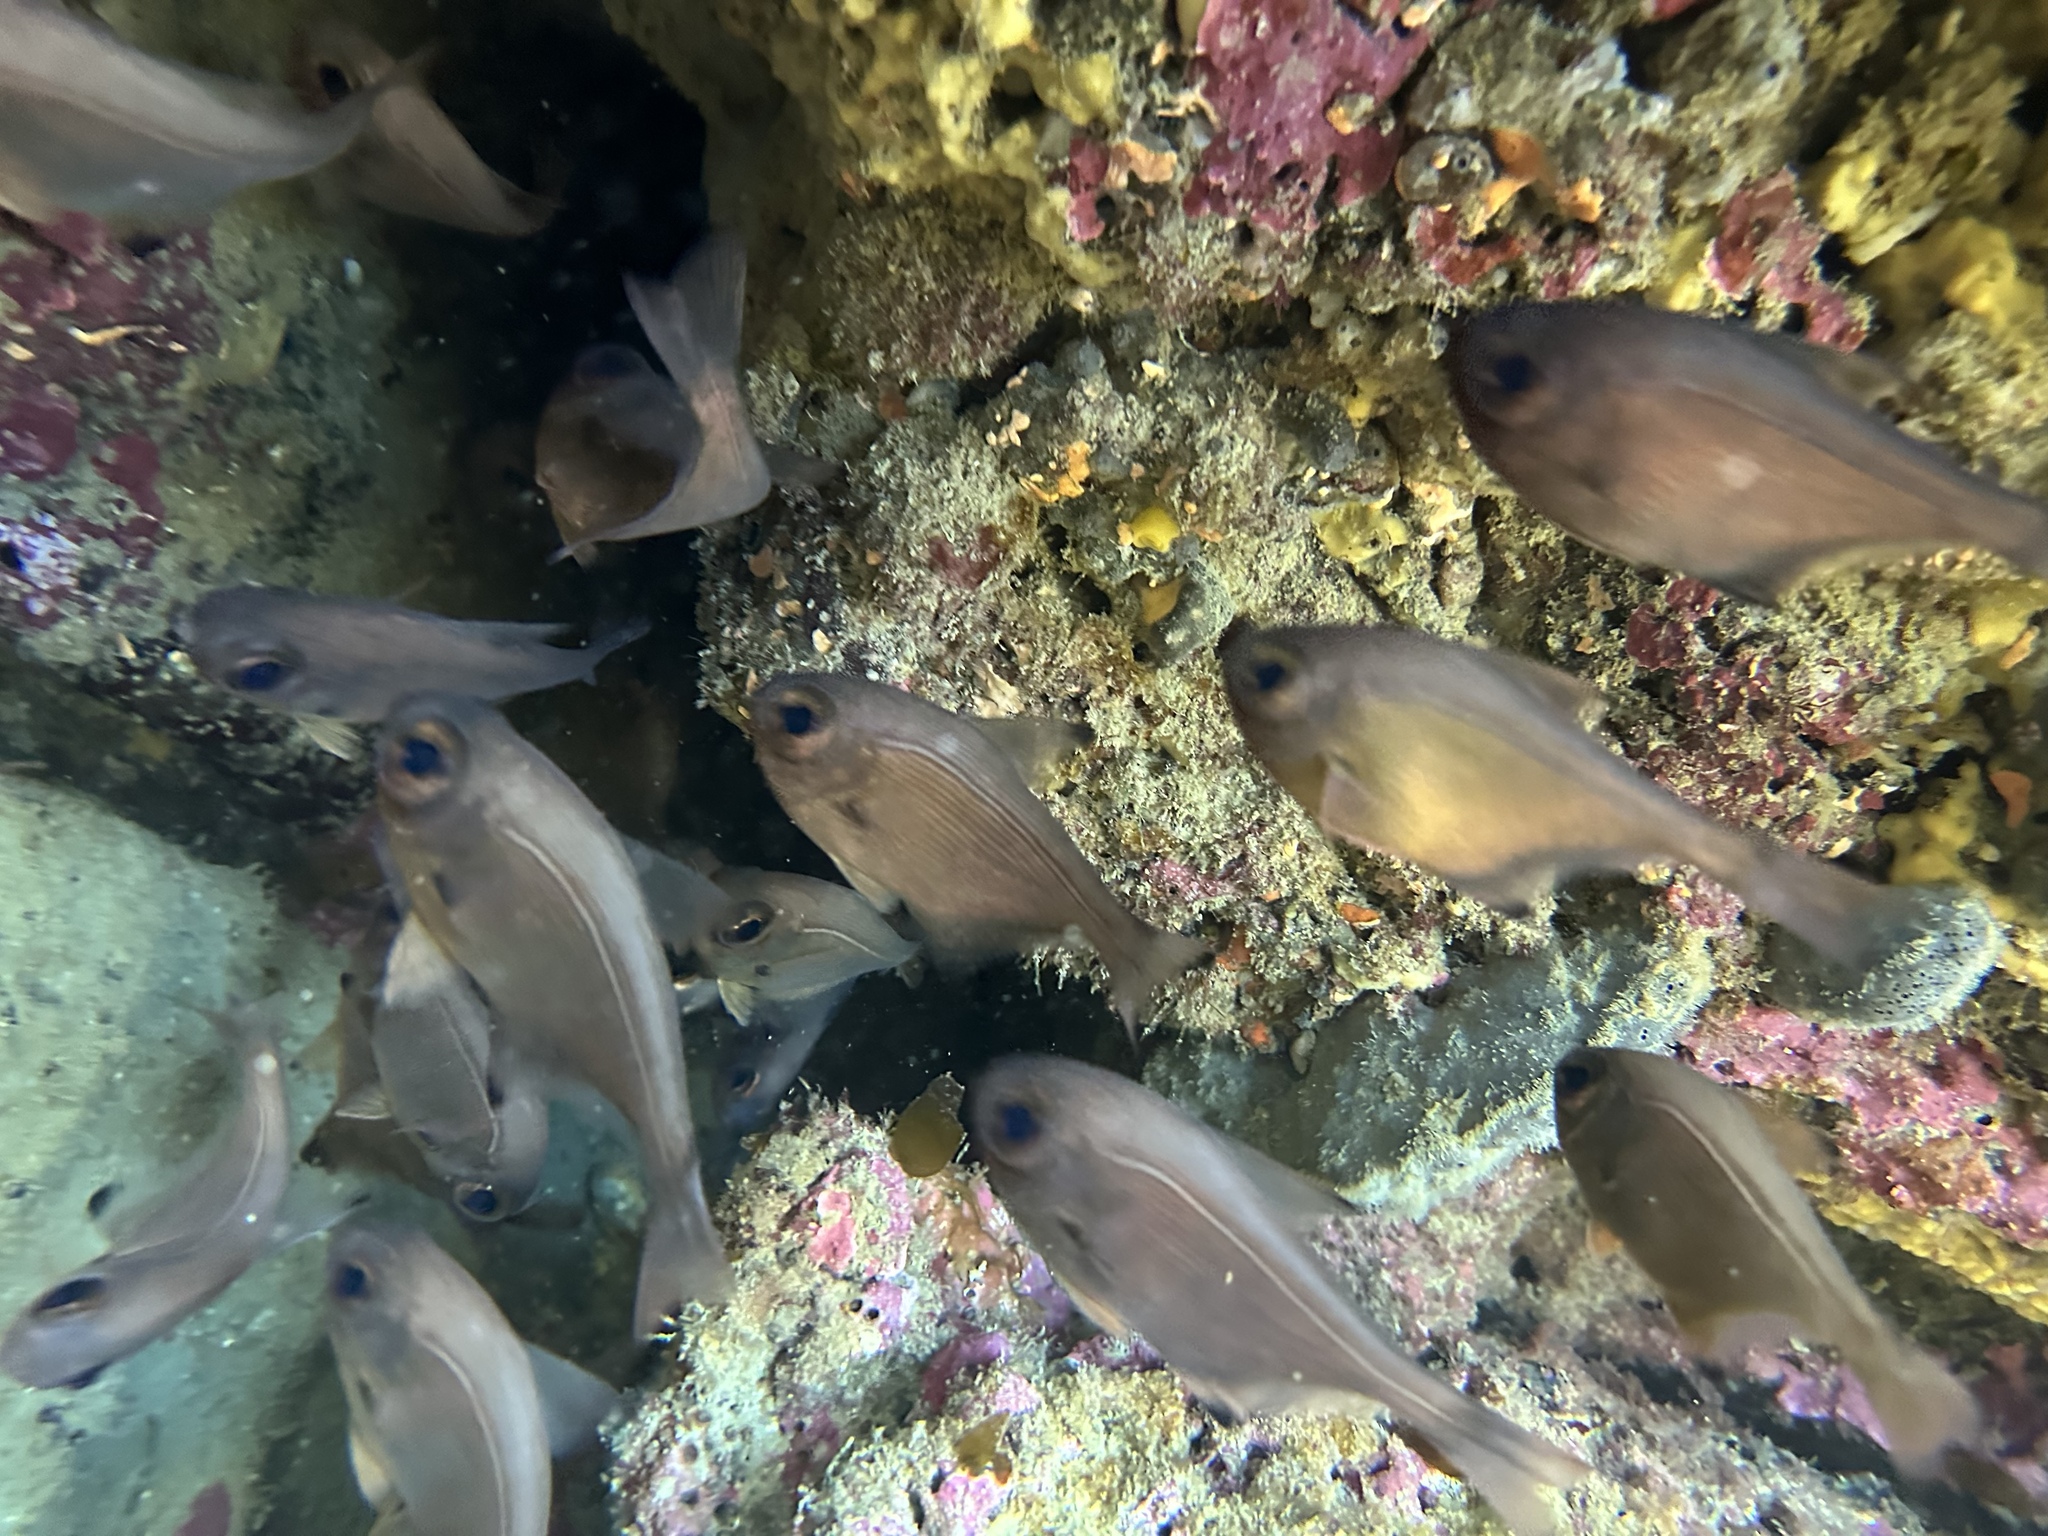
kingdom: Animalia
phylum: Chordata
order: Perciformes
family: Pempheridae
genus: Pempheris
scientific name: Pempheris adspersa
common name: Bigeye
